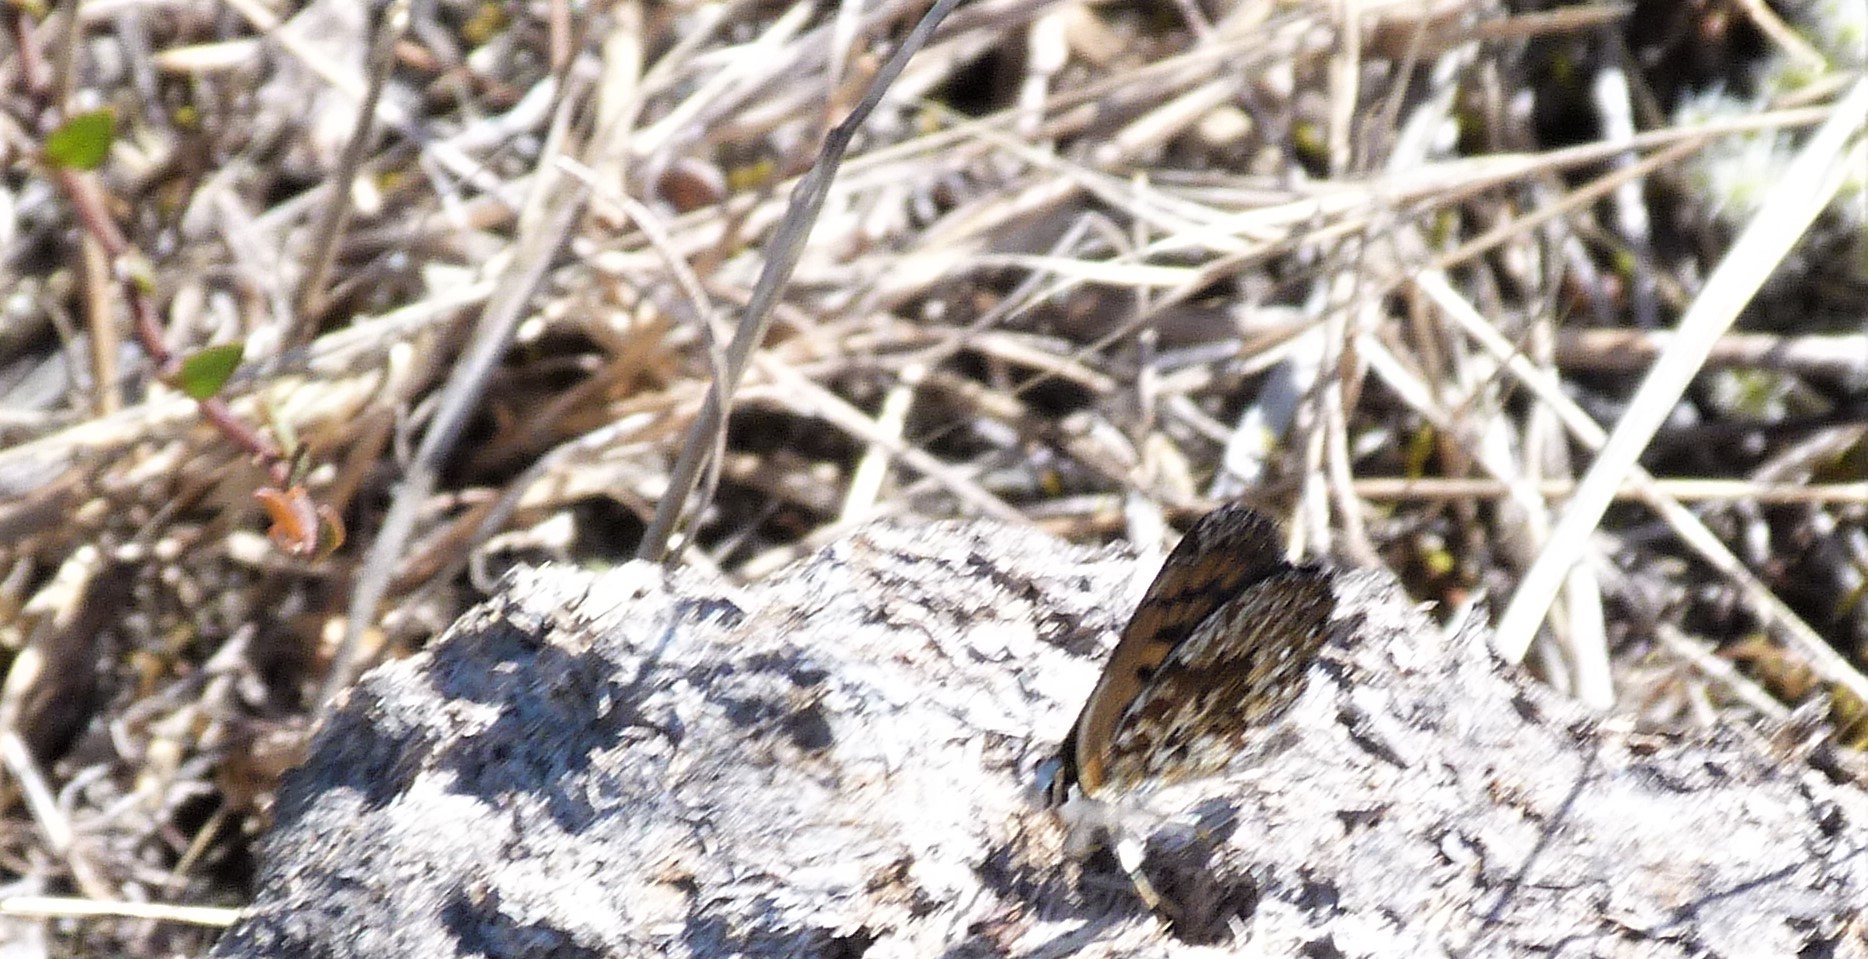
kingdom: Animalia
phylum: Arthropoda
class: Insecta
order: Lepidoptera
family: Lycaenidae
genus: Lycaena
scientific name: Lycaena
